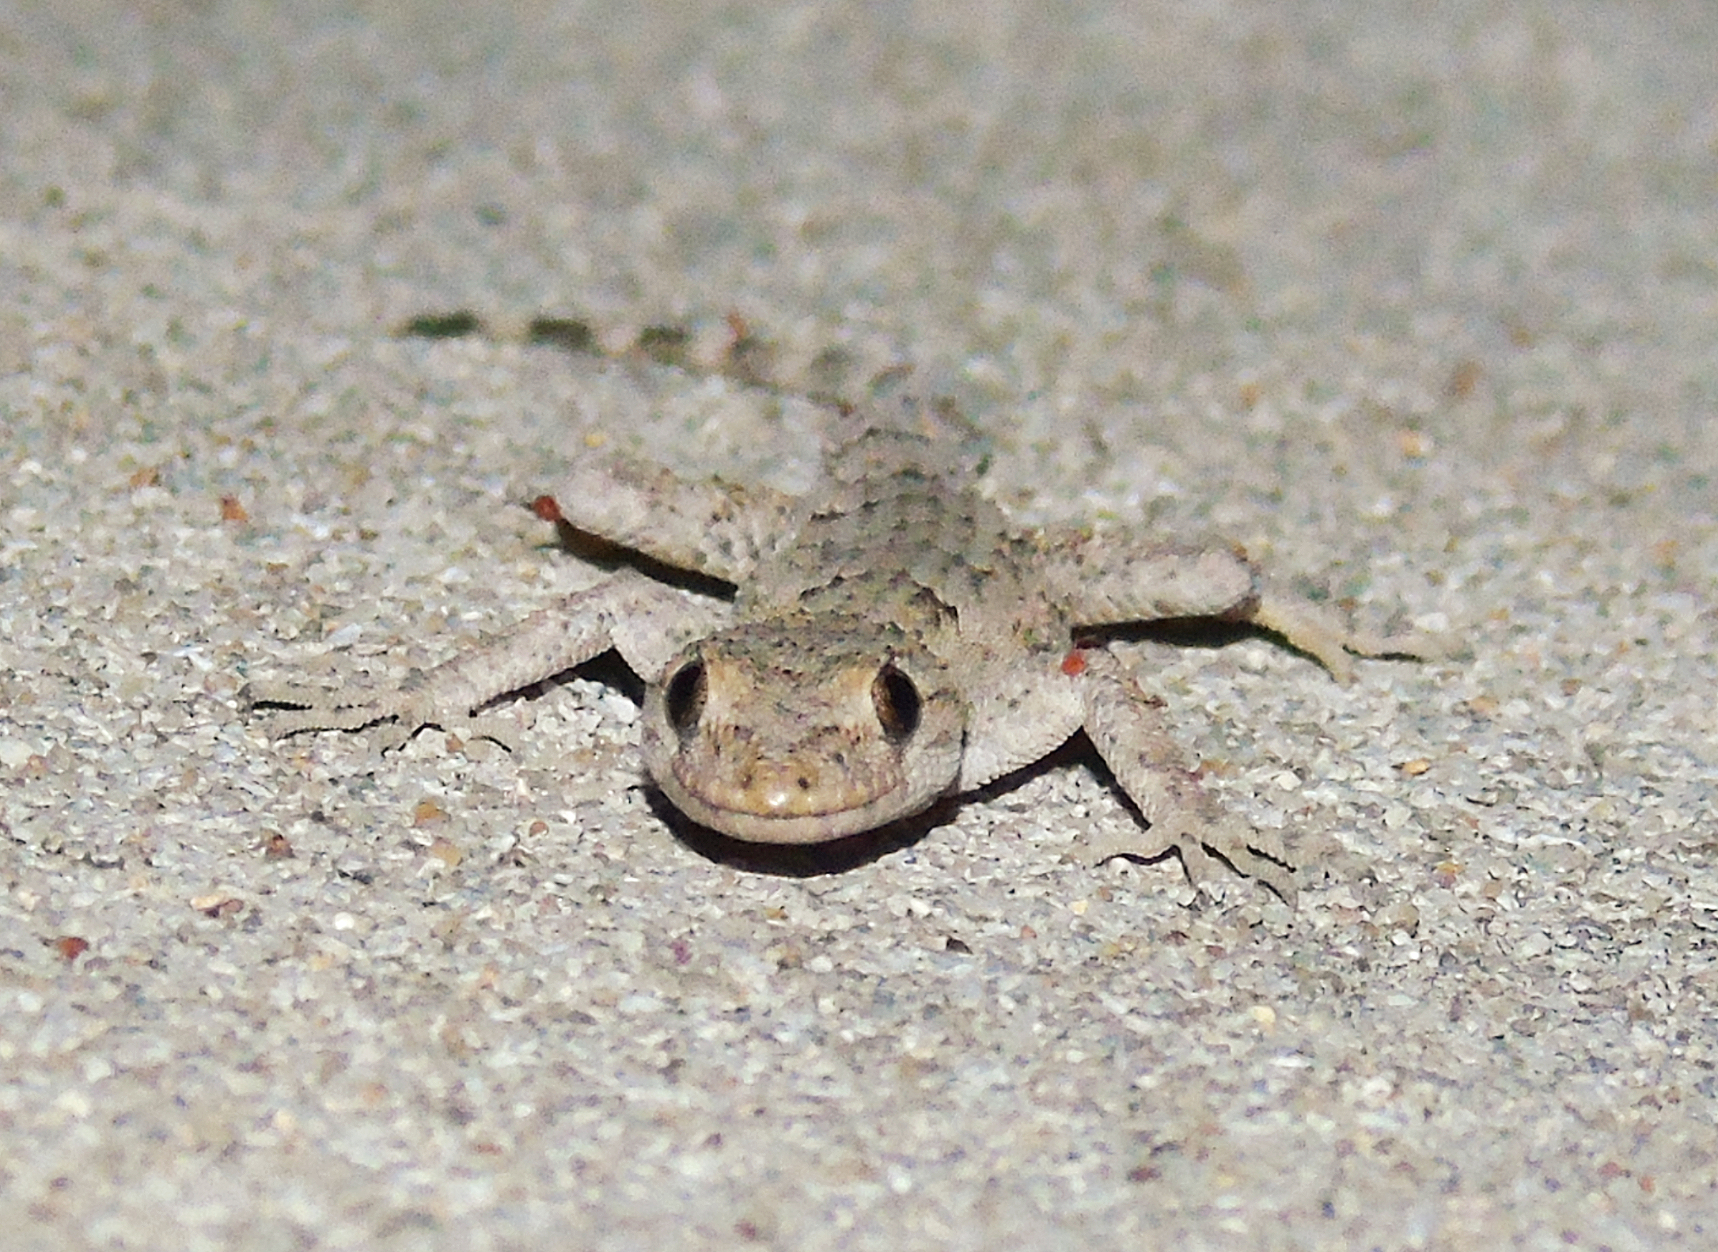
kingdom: Animalia
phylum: Chordata
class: Squamata
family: Gekkonidae
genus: Mediodactylus
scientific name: Mediodactylus danilewskii
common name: Bulgarian bent-toed gecko
